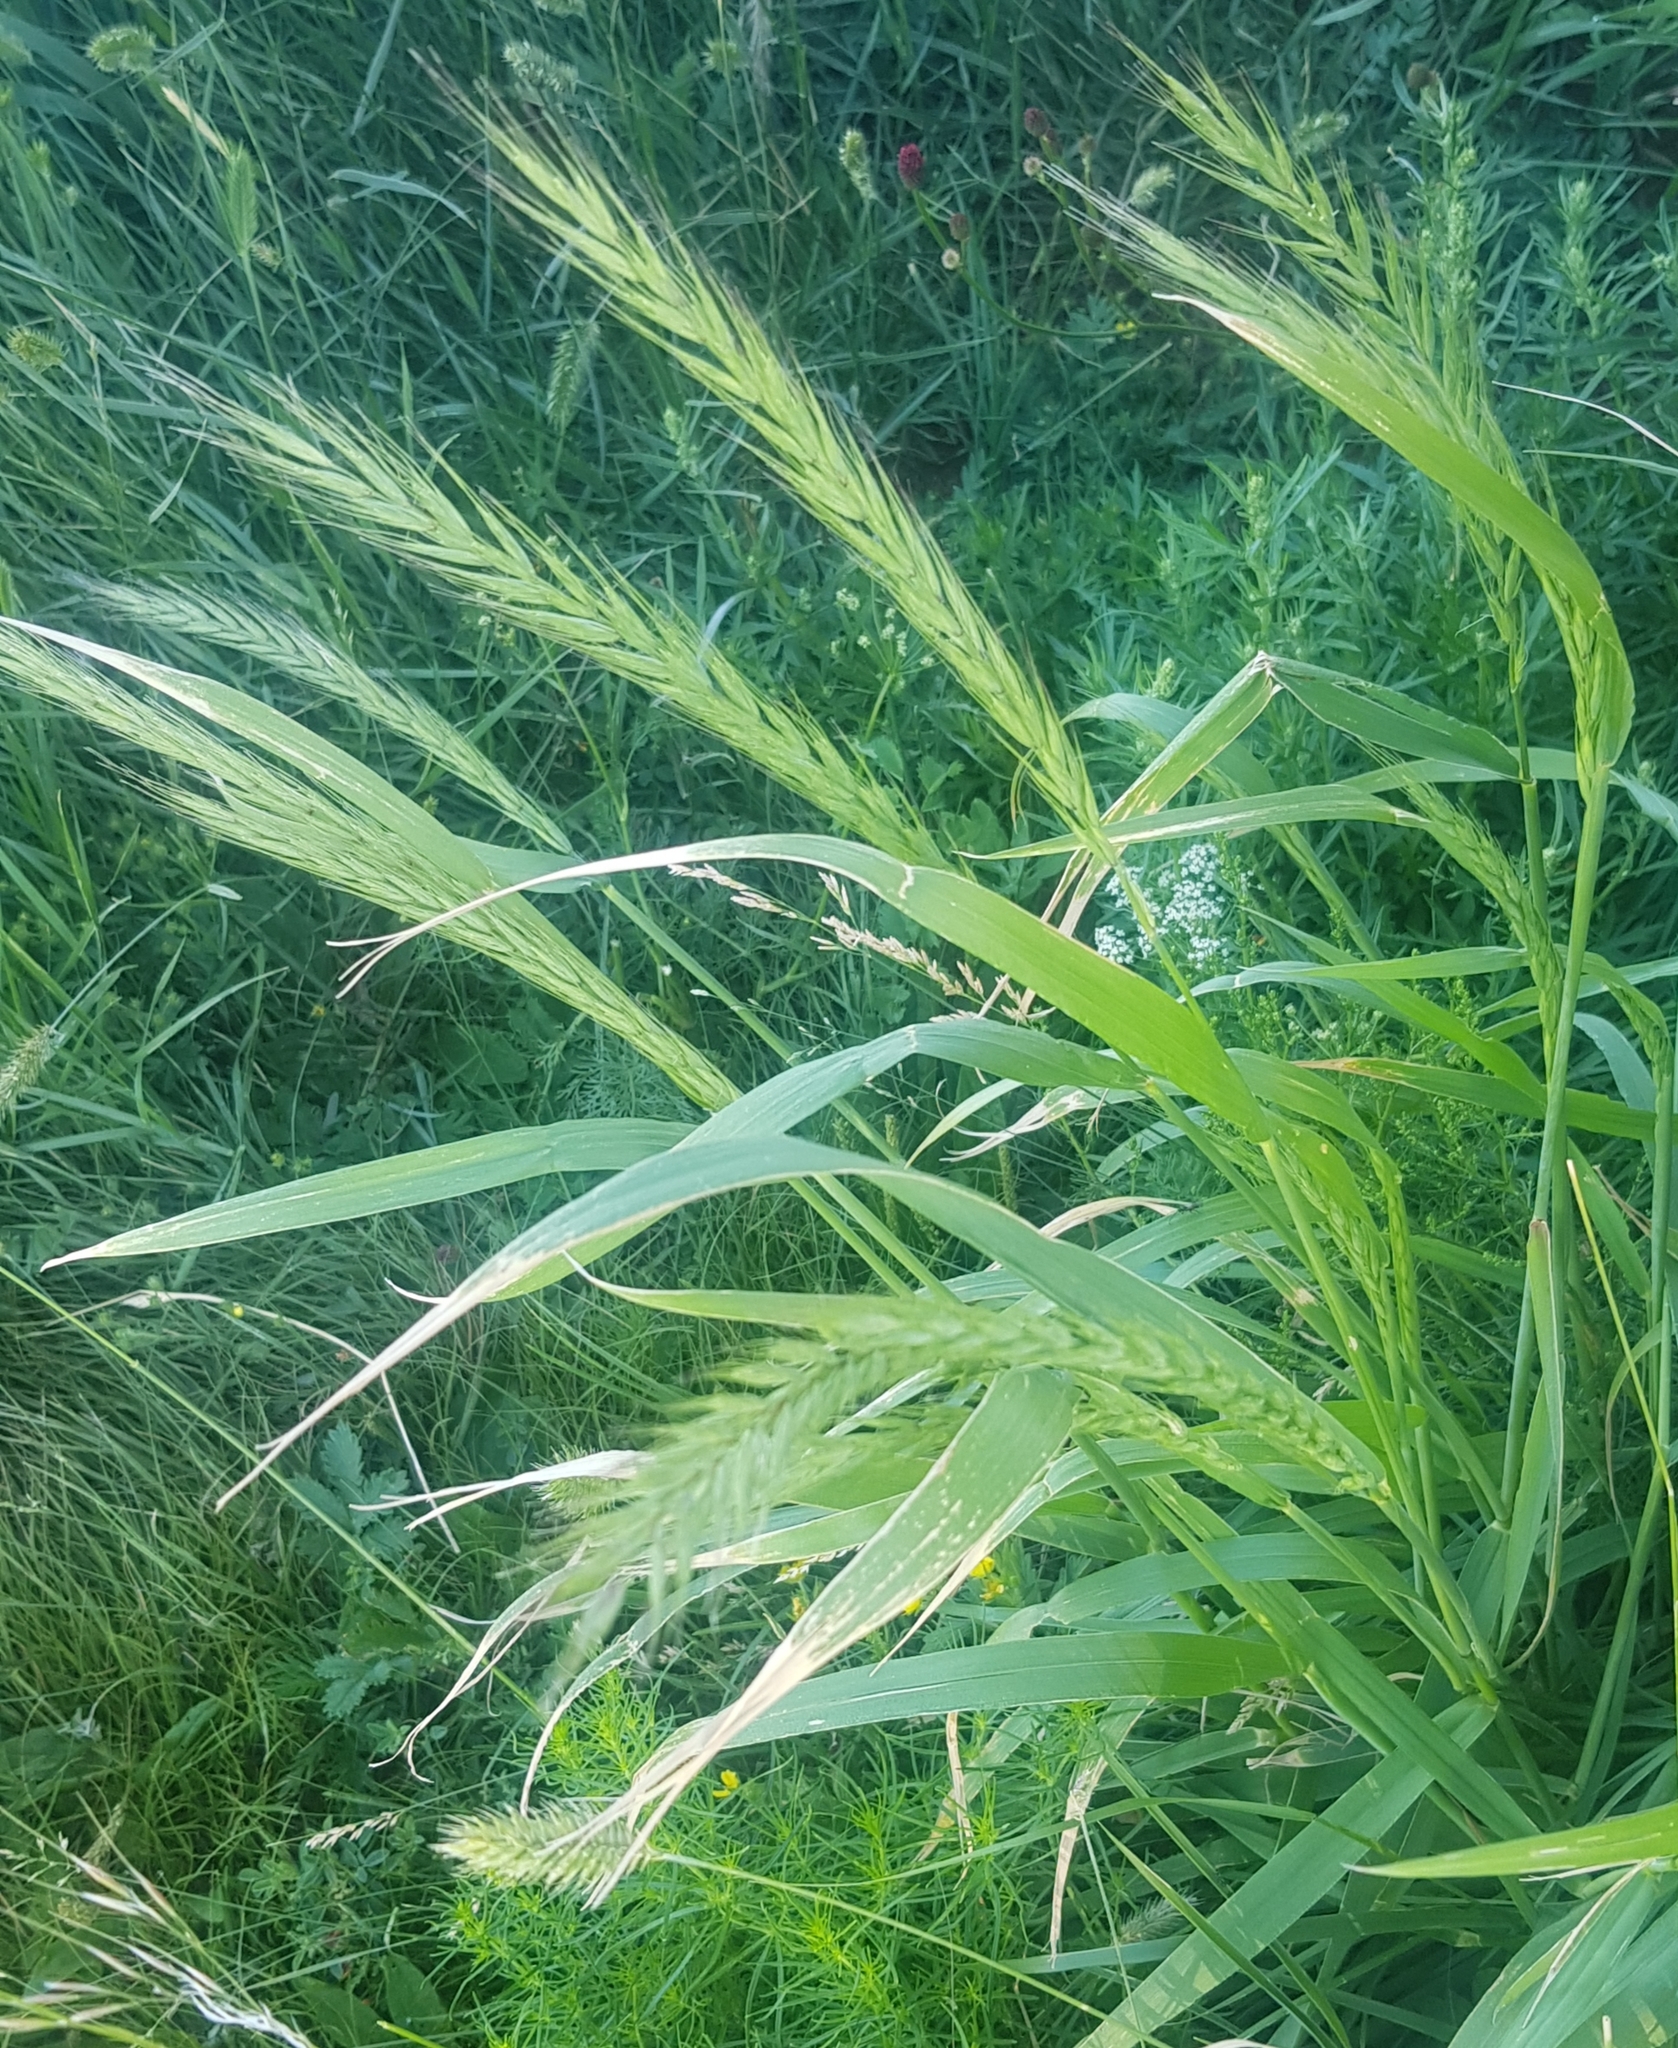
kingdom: Plantae
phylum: Tracheophyta
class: Liliopsida
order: Poales
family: Poaceae
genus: Hordeum
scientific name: Hordeum vulgare
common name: Common barley
